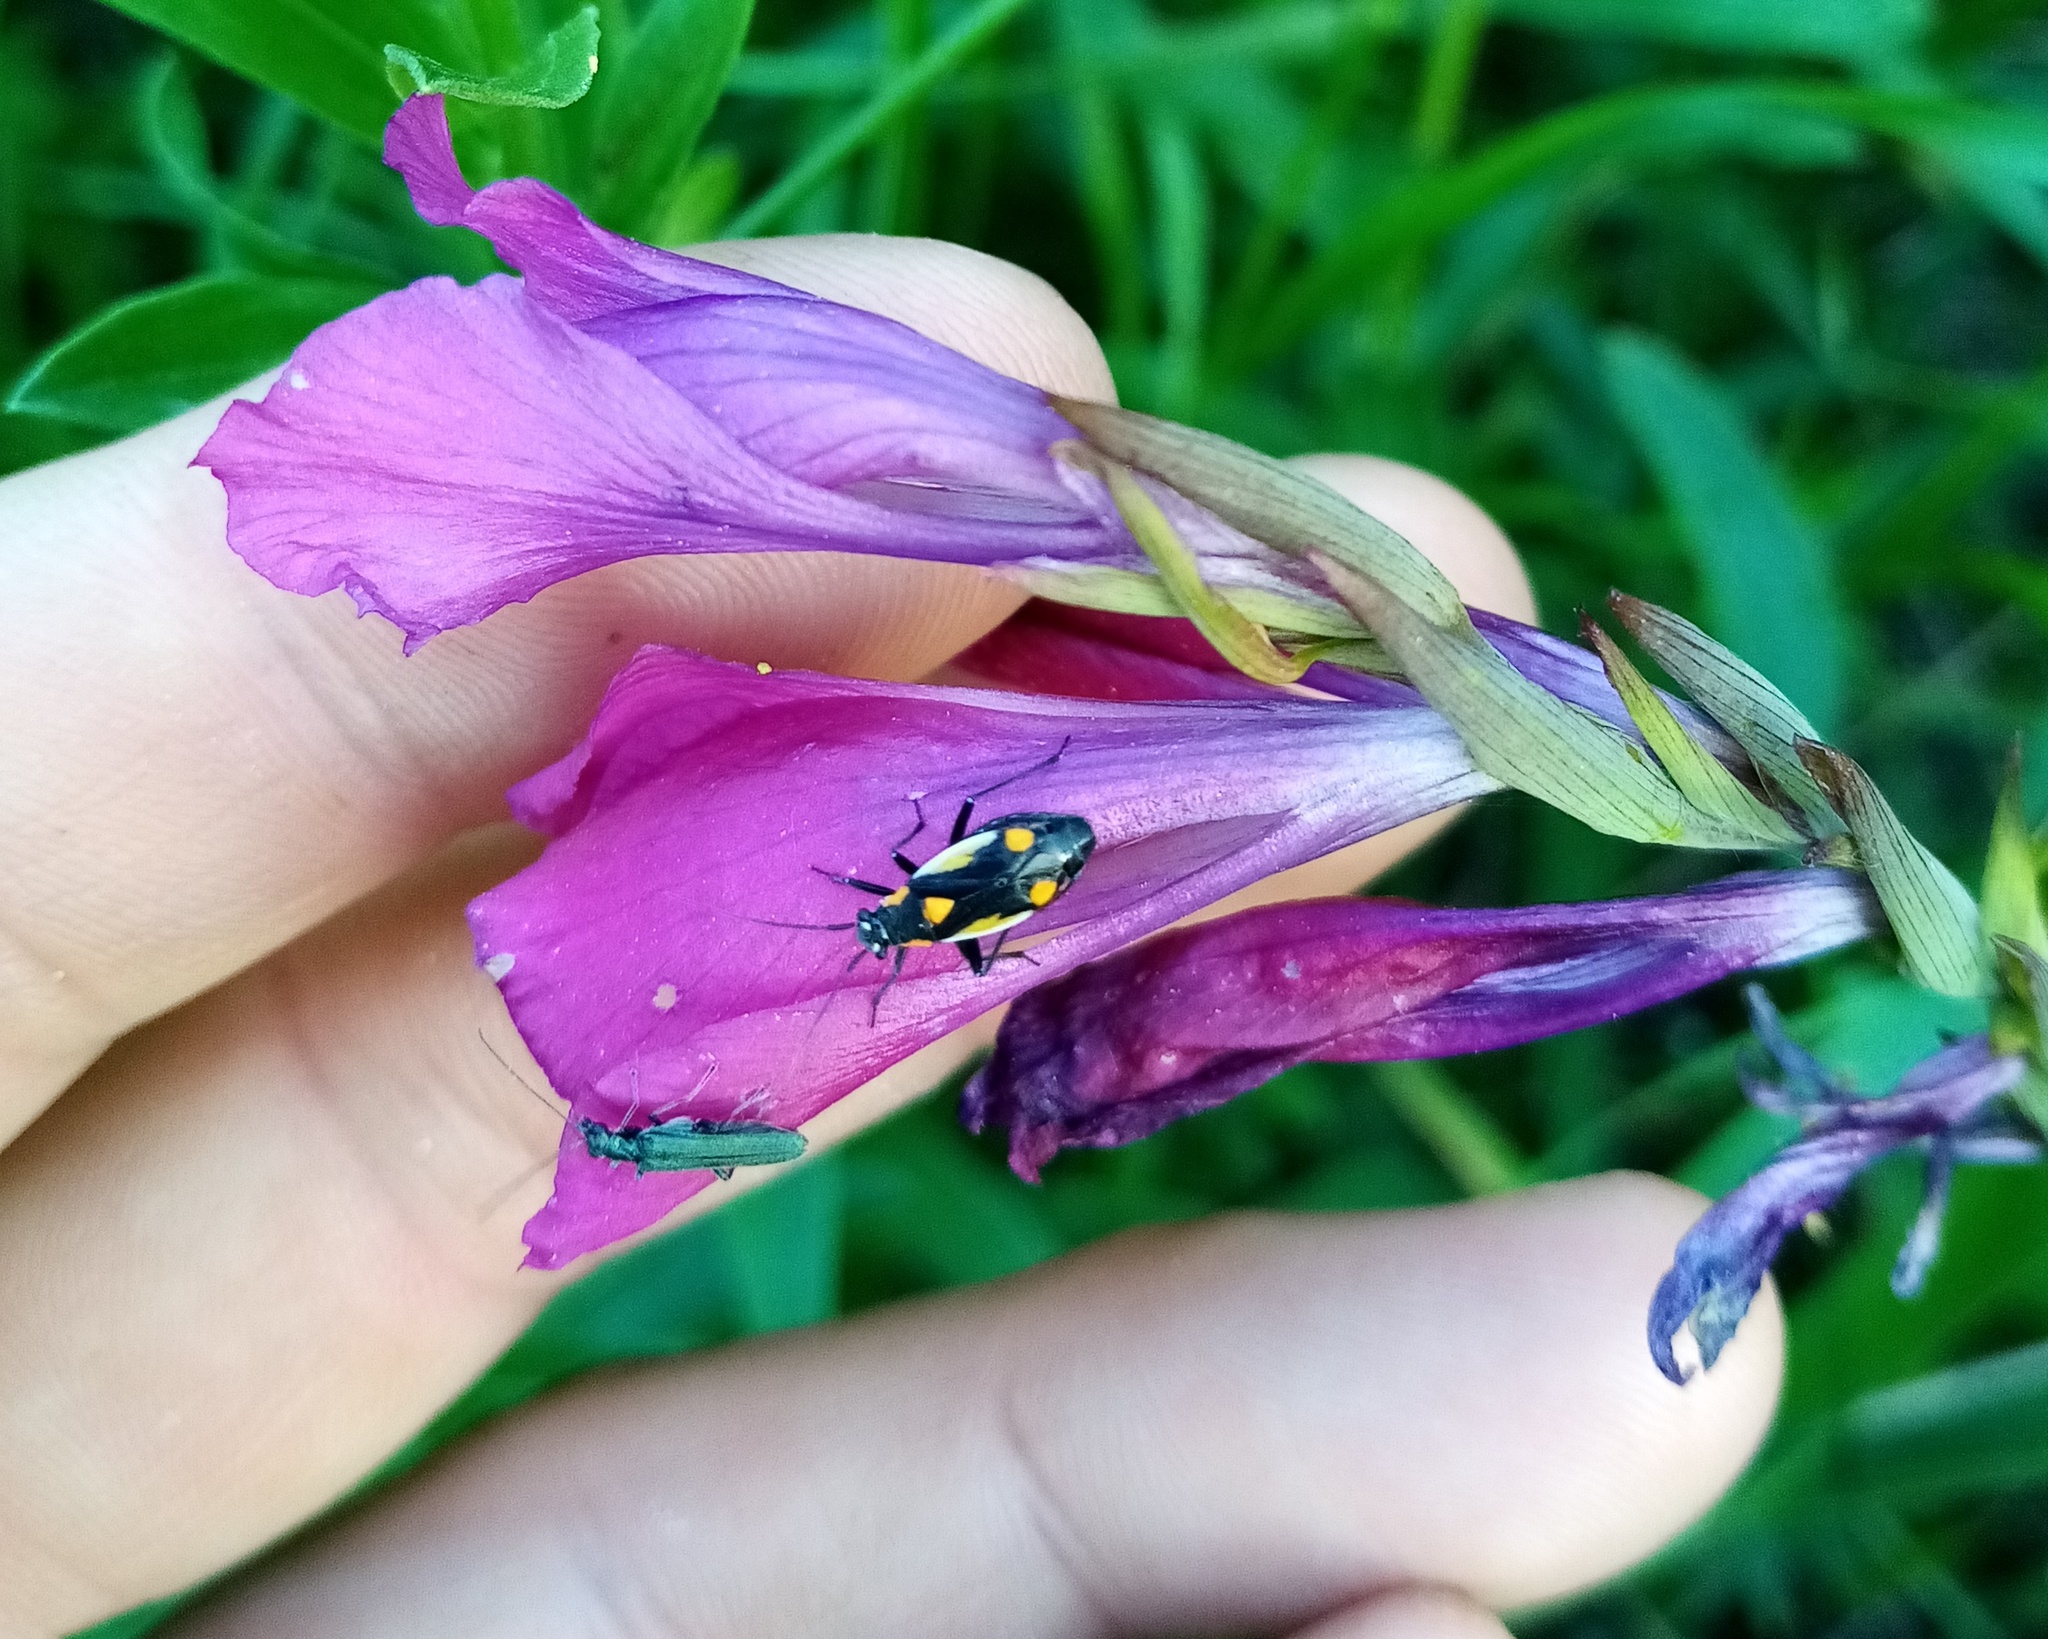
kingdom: Animalia
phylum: Arthropoda
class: Insecta
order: Hemiptera
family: Miridae
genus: Capsodes
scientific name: Capsodes gothicus
